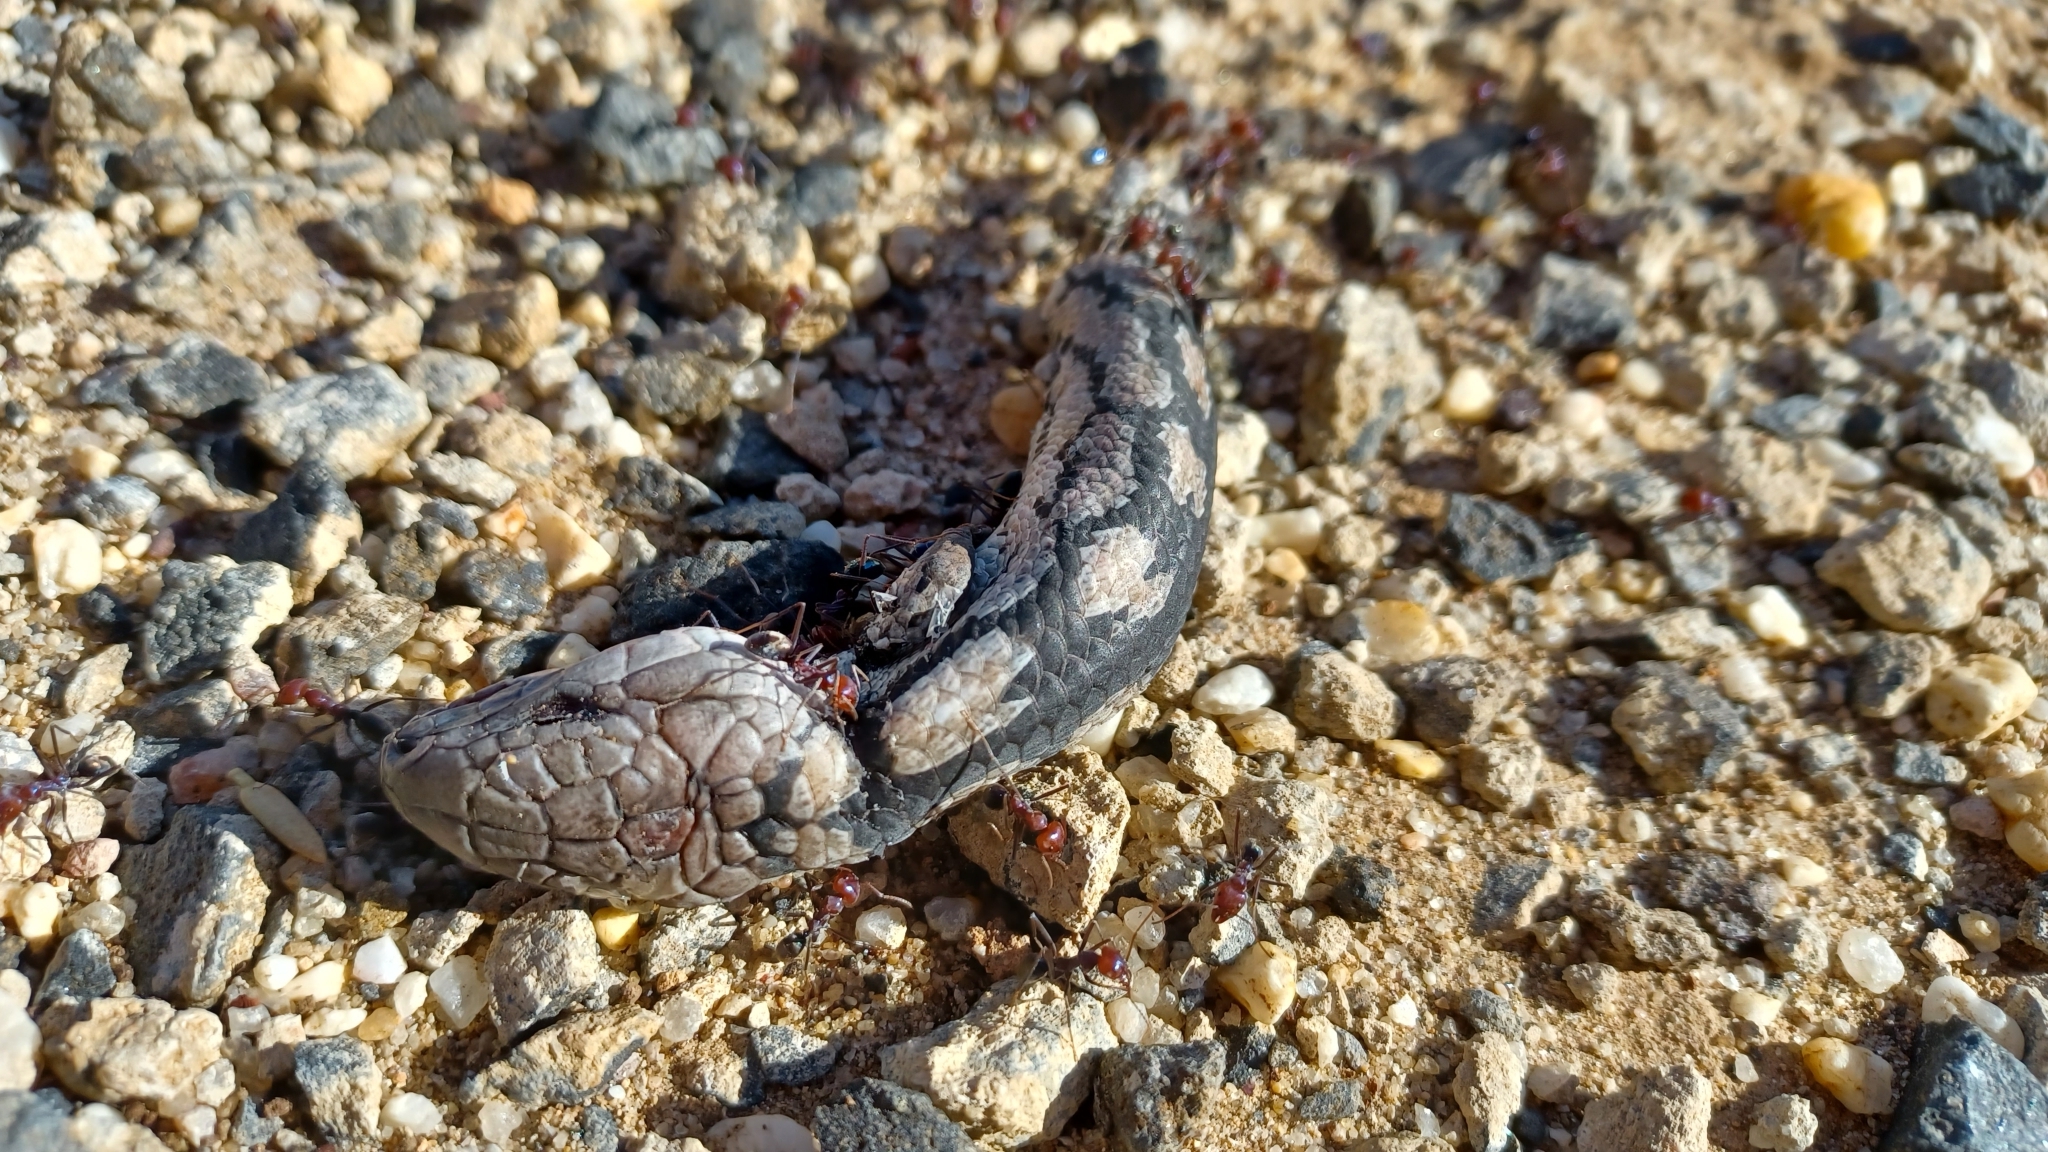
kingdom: Animalia
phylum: Chordata
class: Squamata
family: Scincidae
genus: Tiliqua
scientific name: Tiliqua nigrolutea
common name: Blotched blue-tongued lizard
